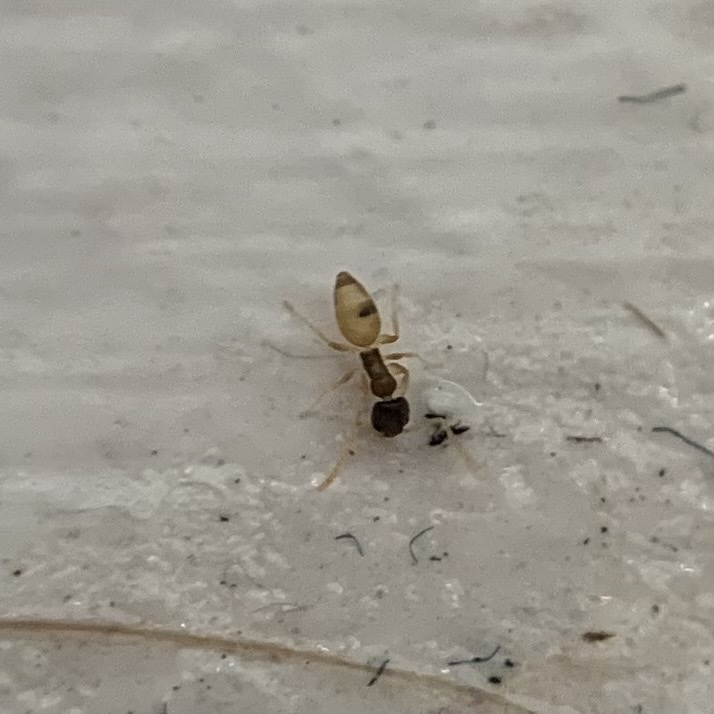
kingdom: Animalia
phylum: Arthropoda
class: Insecta
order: Hymenoptera
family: Formicidae
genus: Tapinoma
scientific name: Tapinoma melanocephalum
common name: Ghost ant
